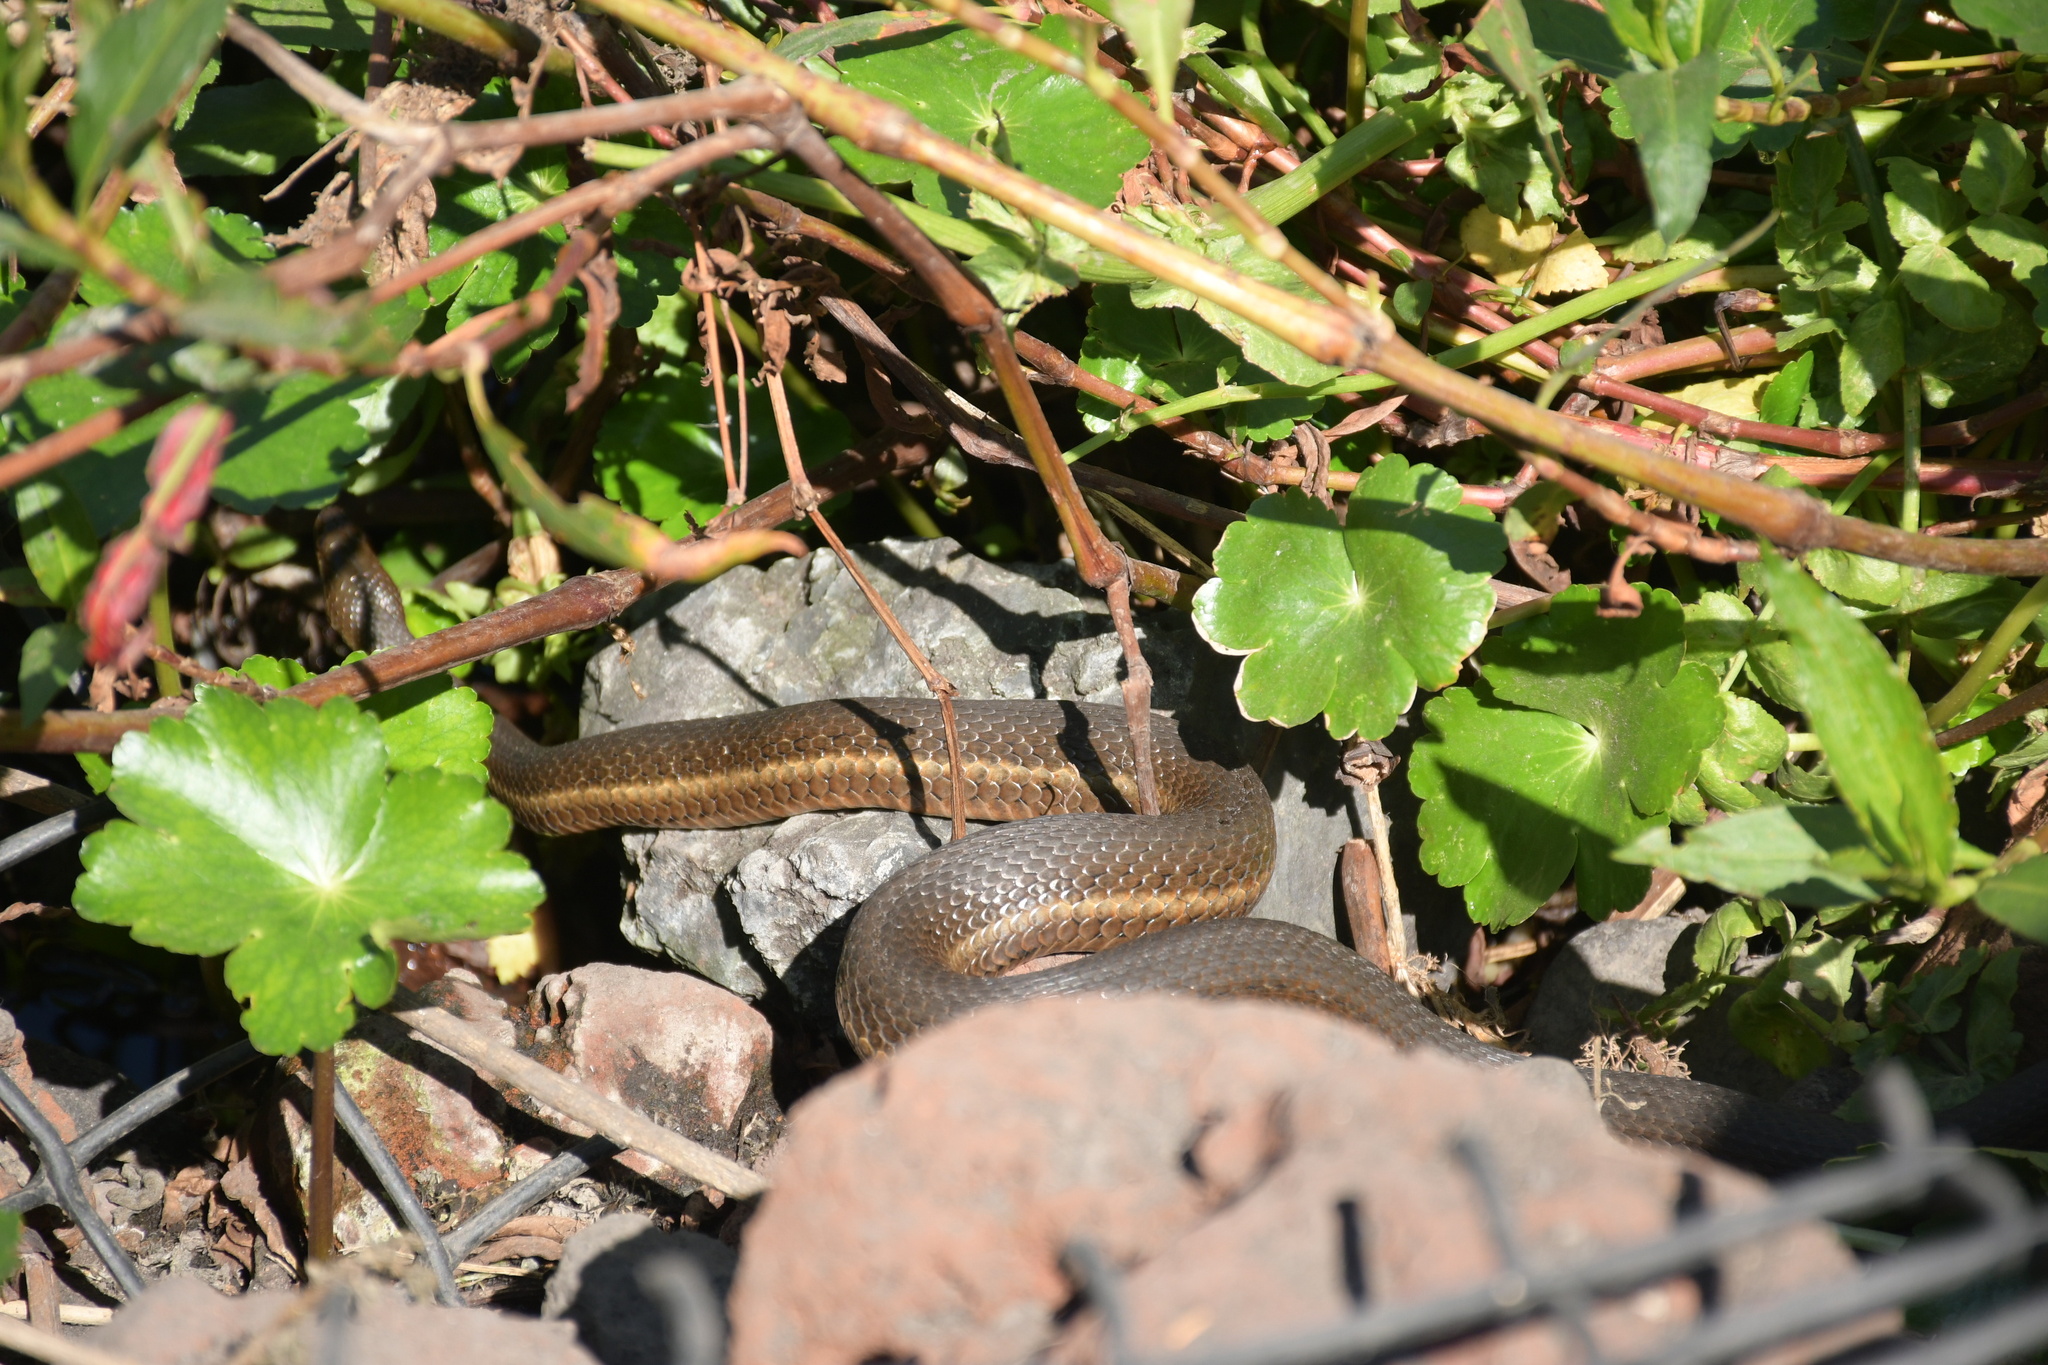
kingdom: Animalia
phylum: Chordata
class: Squamata
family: Colubridae
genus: Thamnophis
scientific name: Thamnophis melanogaster
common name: Blackbelly garter snake
